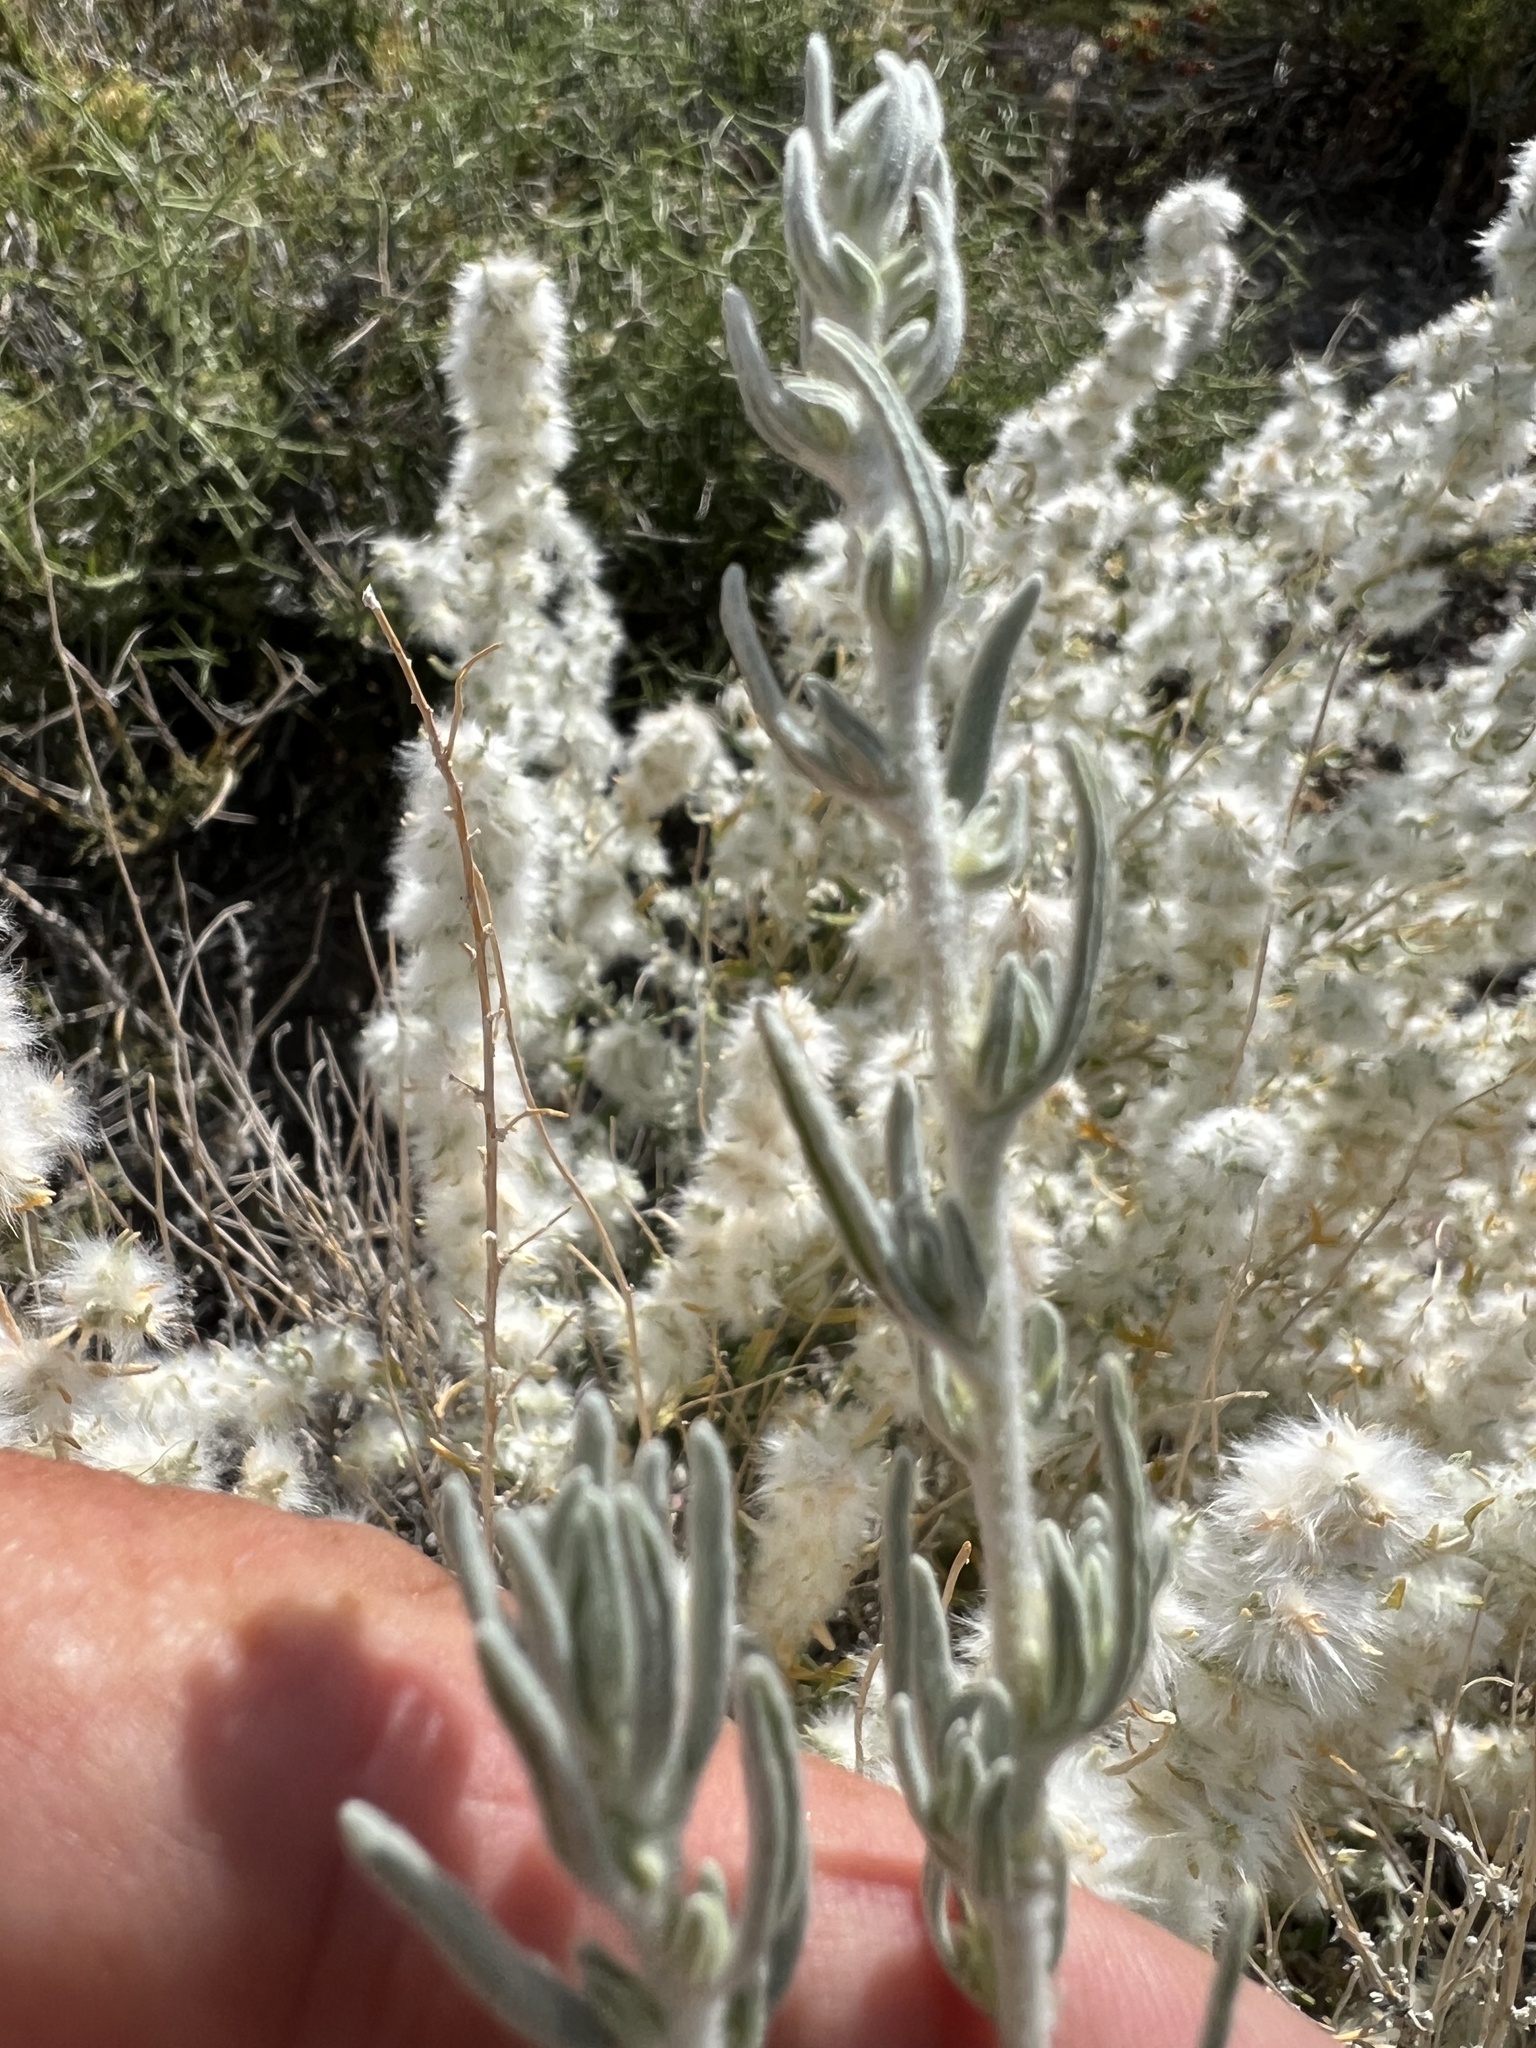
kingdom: Plantae
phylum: Tracheophyta
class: Magnoliopsida
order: Caryophyllales
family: Amaranthaceae
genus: Krascheninnikovia
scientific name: Krascheninnikovia lanata
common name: Winterfat
